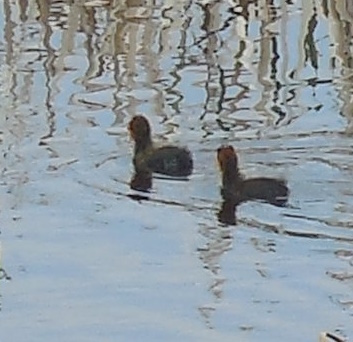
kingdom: Animalia
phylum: Chordata
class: Aves
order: Gruiformes
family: Rallidae
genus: Fulica
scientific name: Fulica americana
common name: American coot
